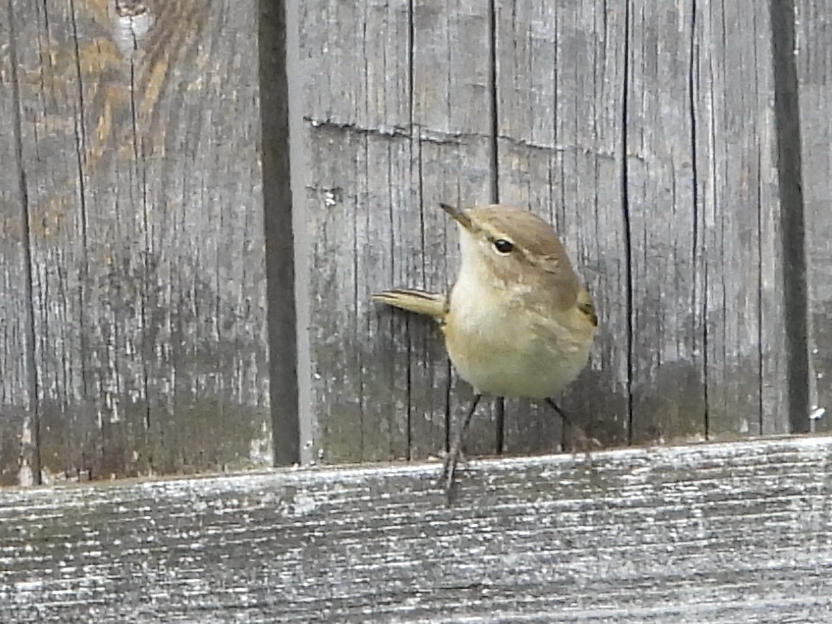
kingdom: Animalia
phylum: Chordata
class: Aves
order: Passeriformes
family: Phylloscopidae
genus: Phylloscopus
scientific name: Phylloscopus collybita
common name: Common chiffchaff
